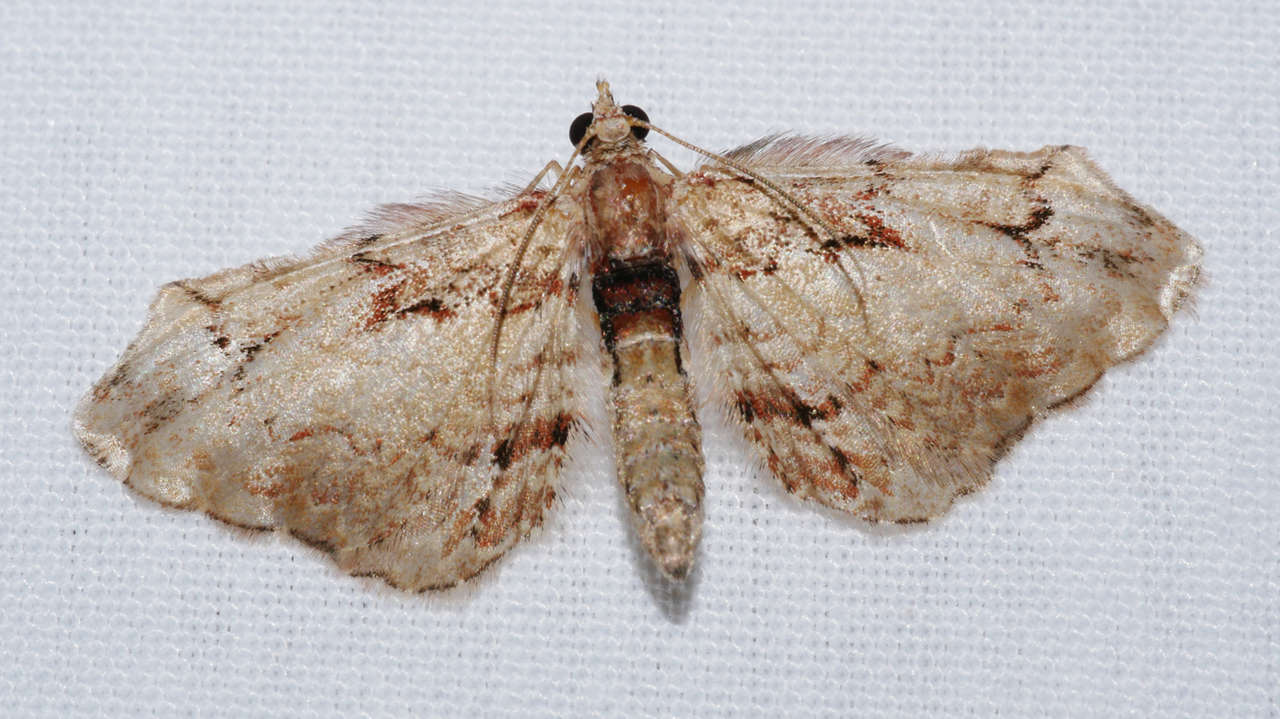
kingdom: Animalia
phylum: Arthropoda
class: Insecta
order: Lepidoptera
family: Geometridae
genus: Chloroclystis
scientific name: Chloroclystis approximata
